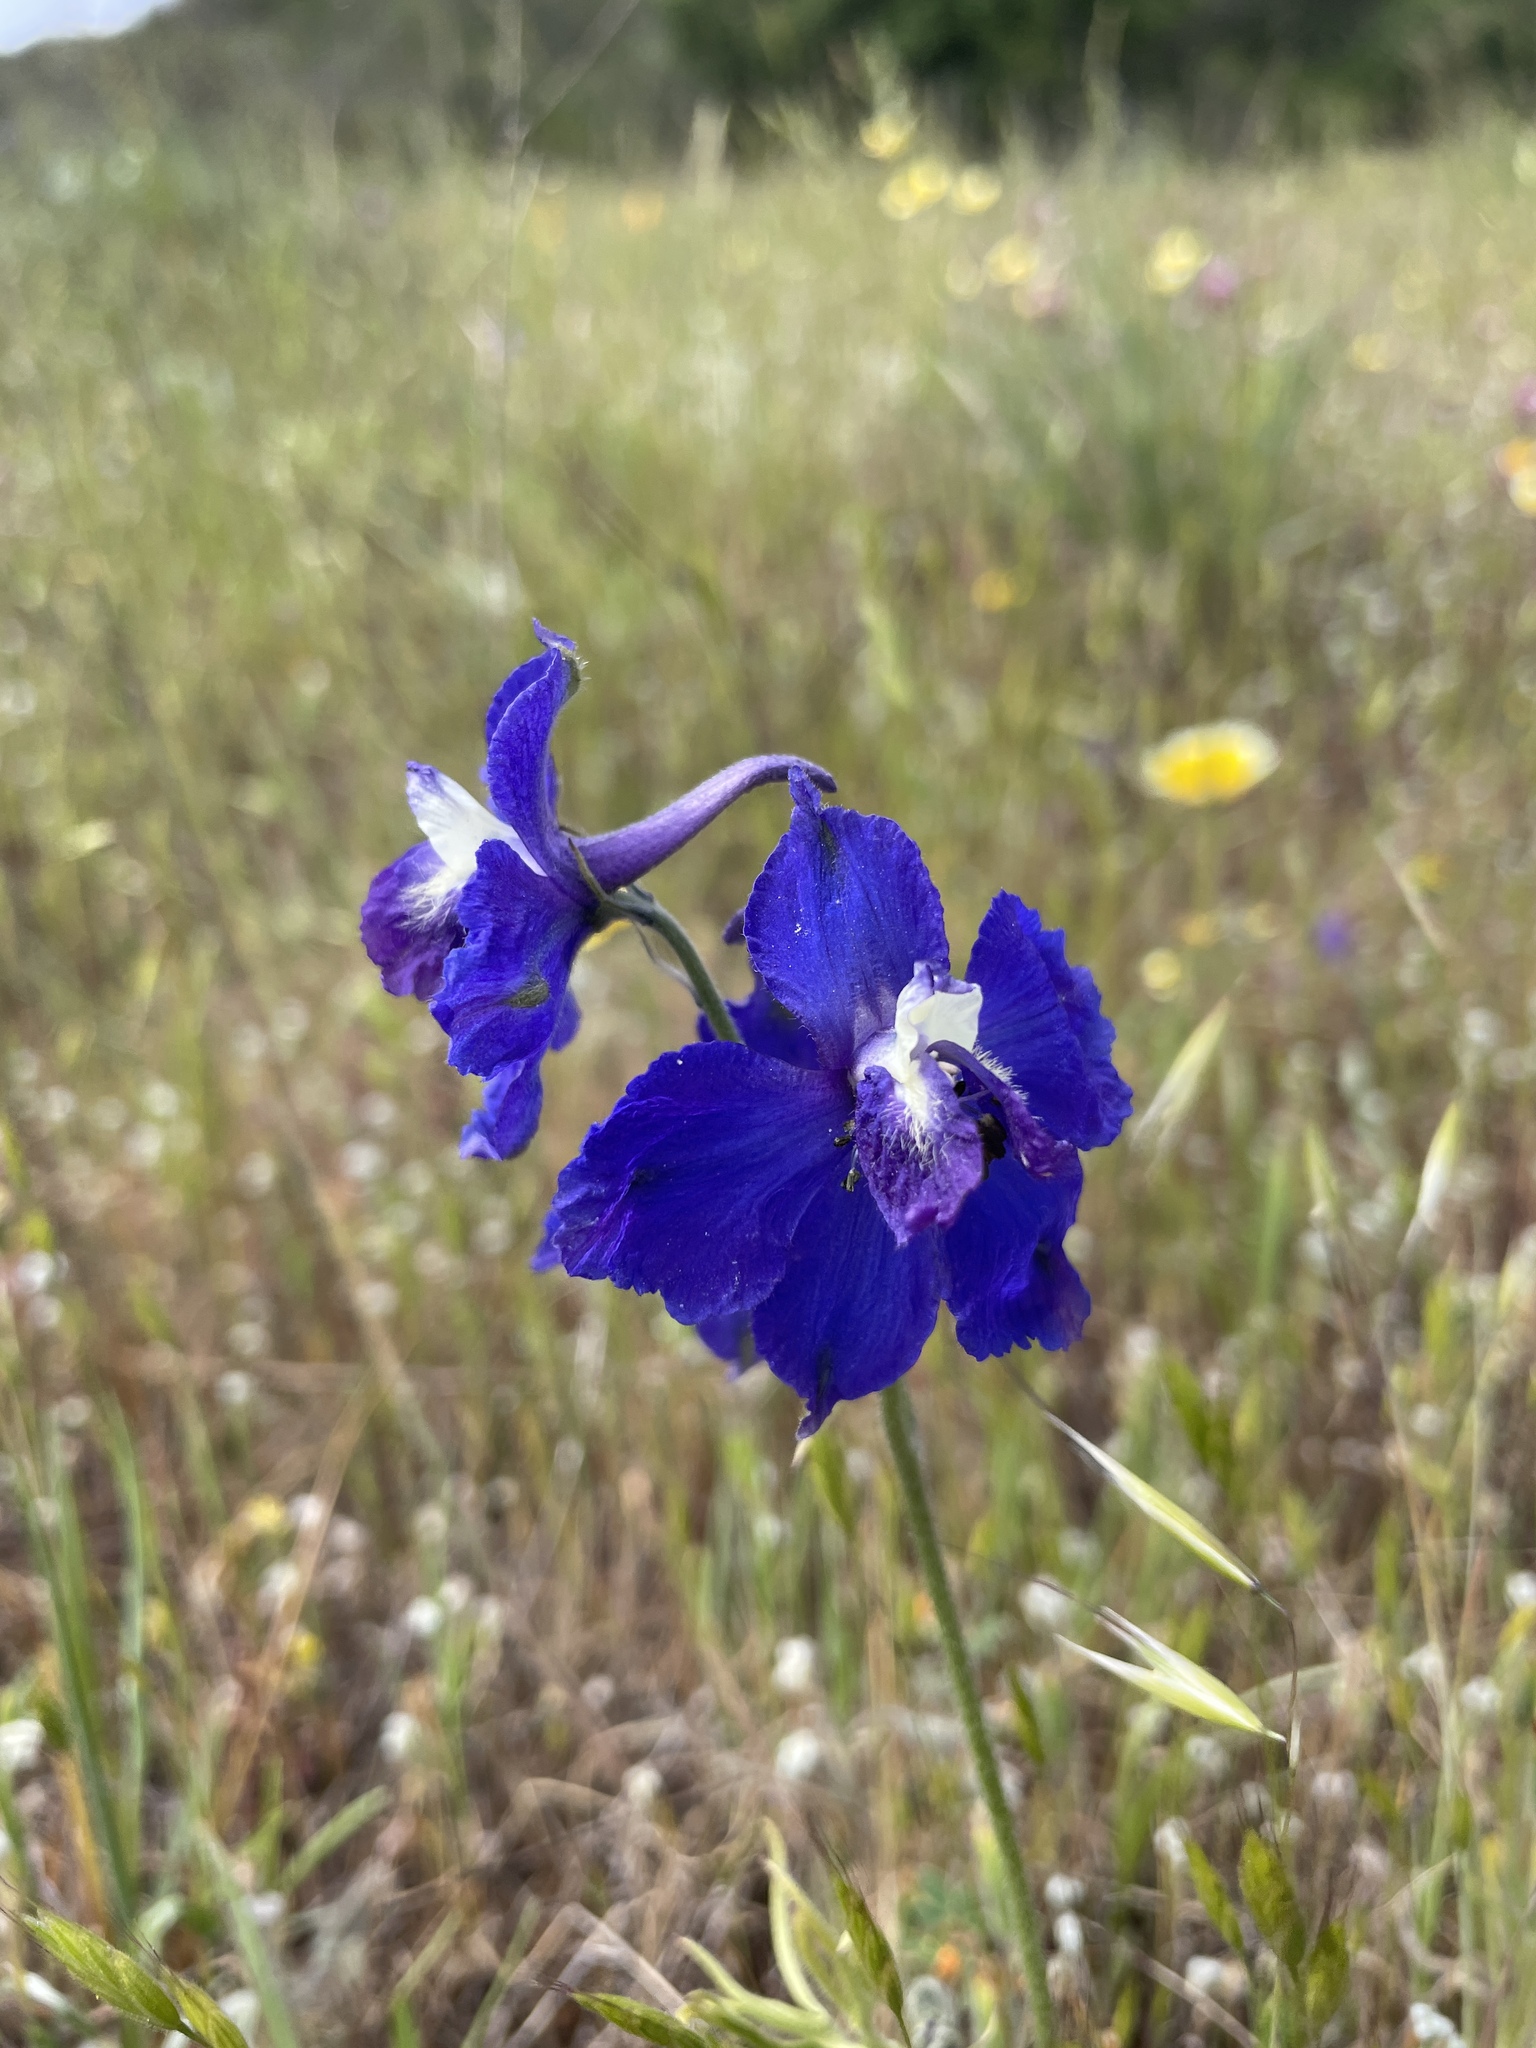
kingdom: Plantae
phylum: Tracheophyta
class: Magnoliopsida
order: Ranunculales
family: Ranunculaceae
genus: Delphinium
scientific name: Delphinium variegatum
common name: Royal larkspur
